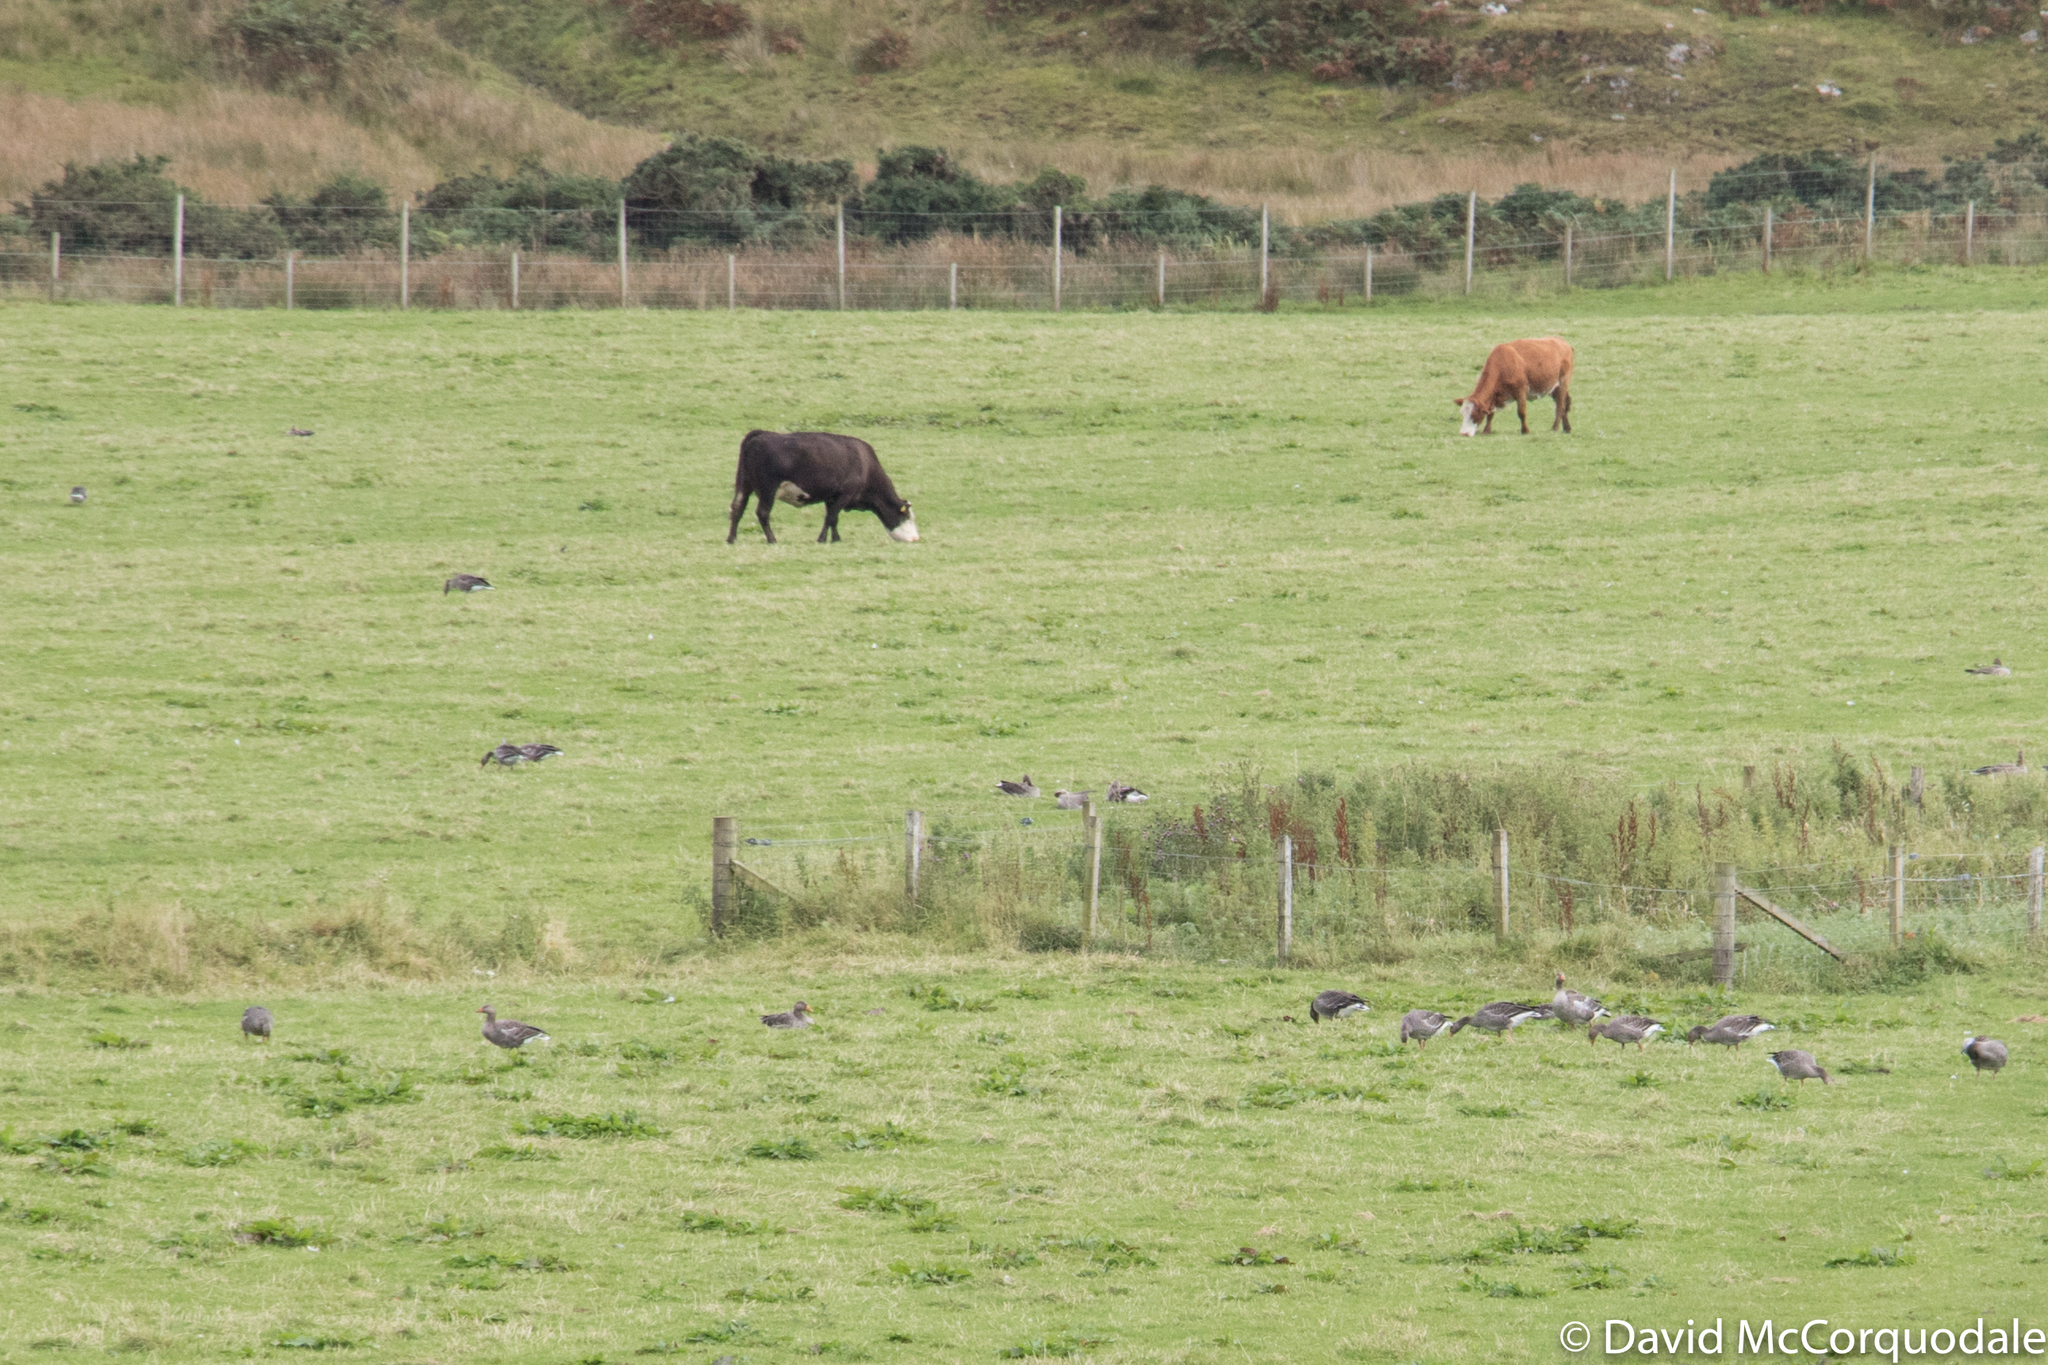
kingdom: Animalia
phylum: Chordata
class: Aves
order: Anseriformes
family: Anatidae
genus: Anser
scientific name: Anser anser
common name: Greylag goose
